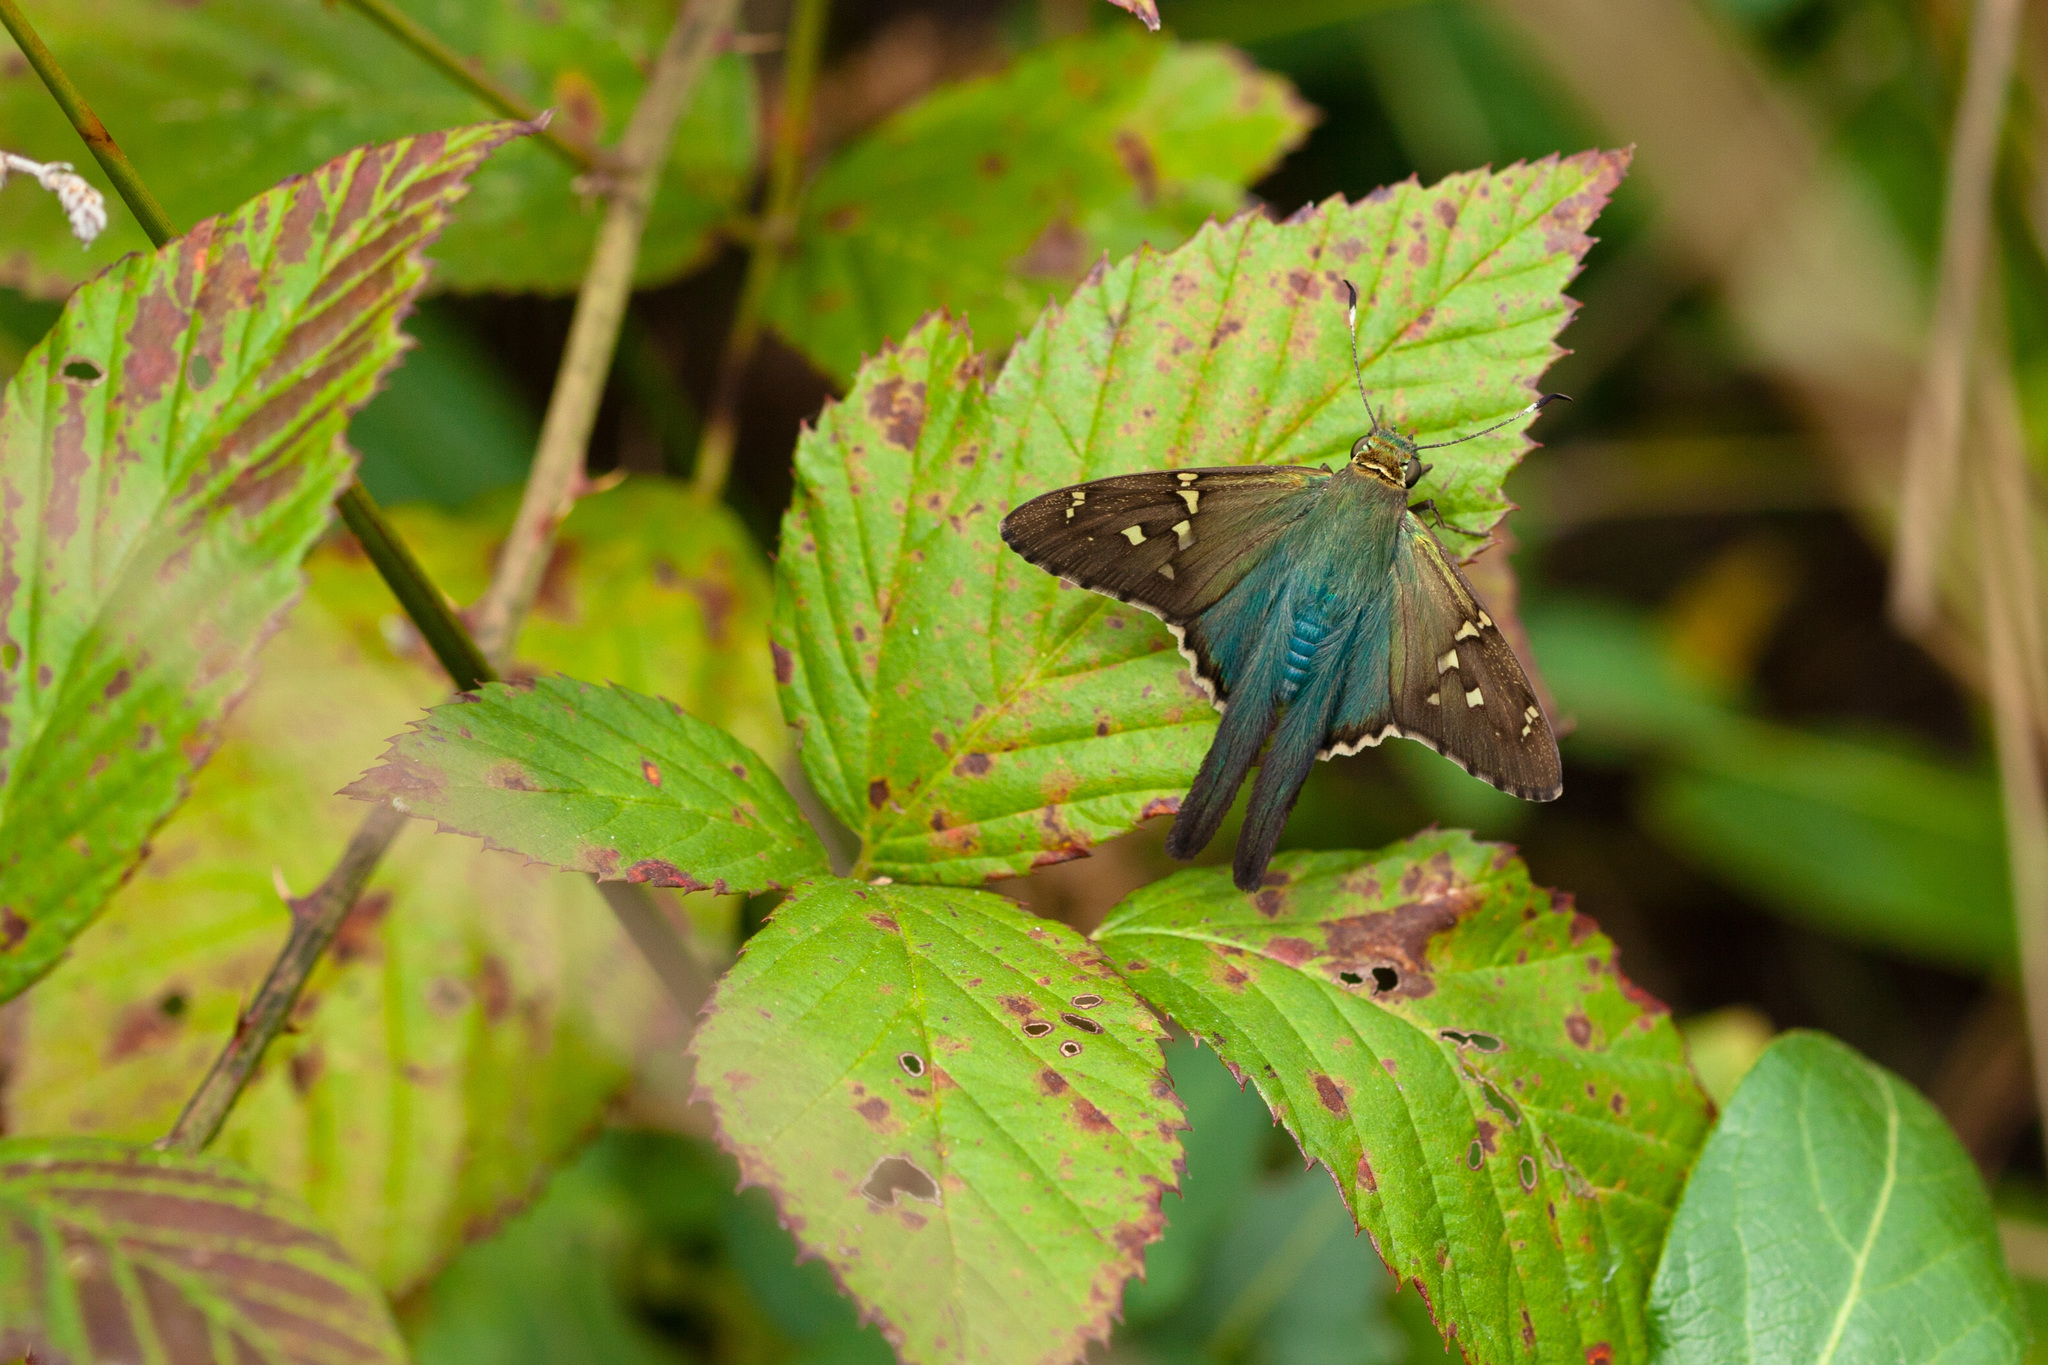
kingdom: Animalia
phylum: Arthropoda
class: Insecta
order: Lepidoptera
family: Hesperiidae
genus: Urbanus
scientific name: Urbanus proteus
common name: Long-tailed skipper
